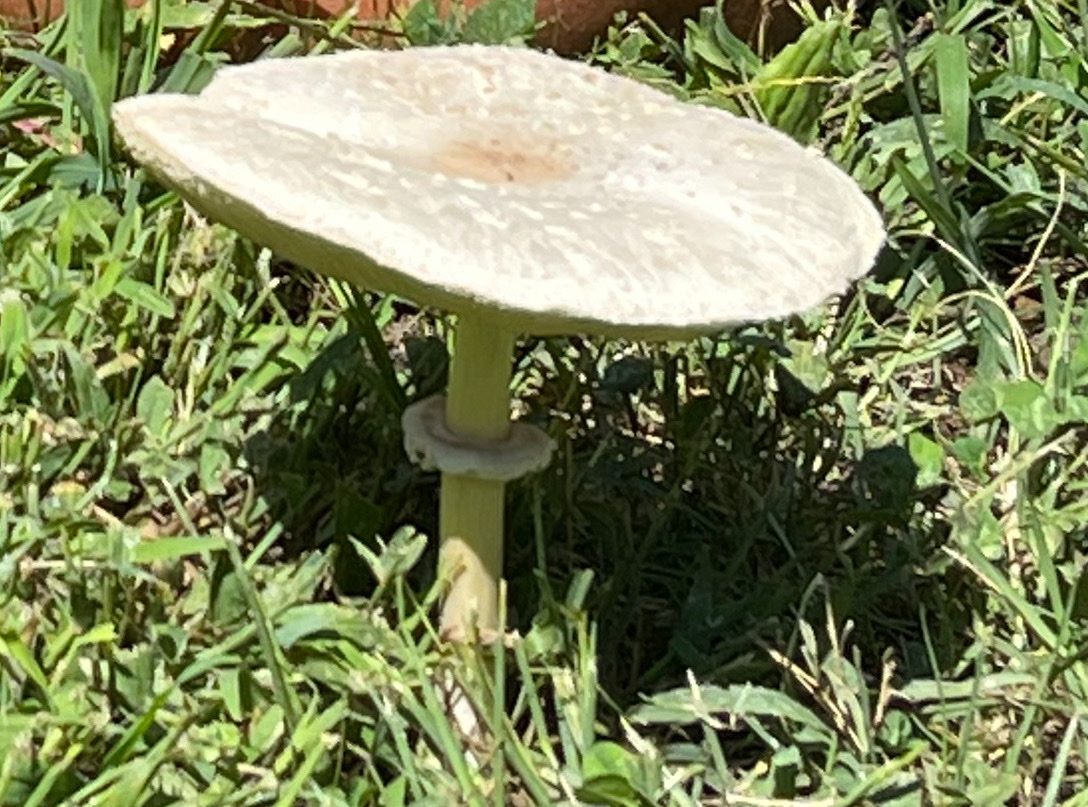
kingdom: Fungi
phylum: Basidiomycota
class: Agaricomycetes
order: Agaricales
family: Agaricaceae
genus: Chlorophyllum
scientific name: Chlorophyllum molybdites
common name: False parasol
